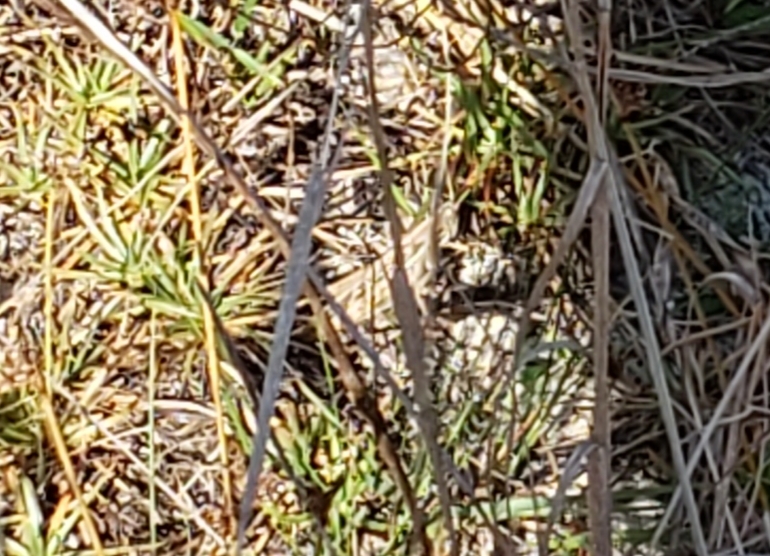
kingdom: Animalia
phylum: Arthropoda
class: Insecta
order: Orthoptera
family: Acrididae
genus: Schistocerca
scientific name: Schistocerca americana
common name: American bird locust
